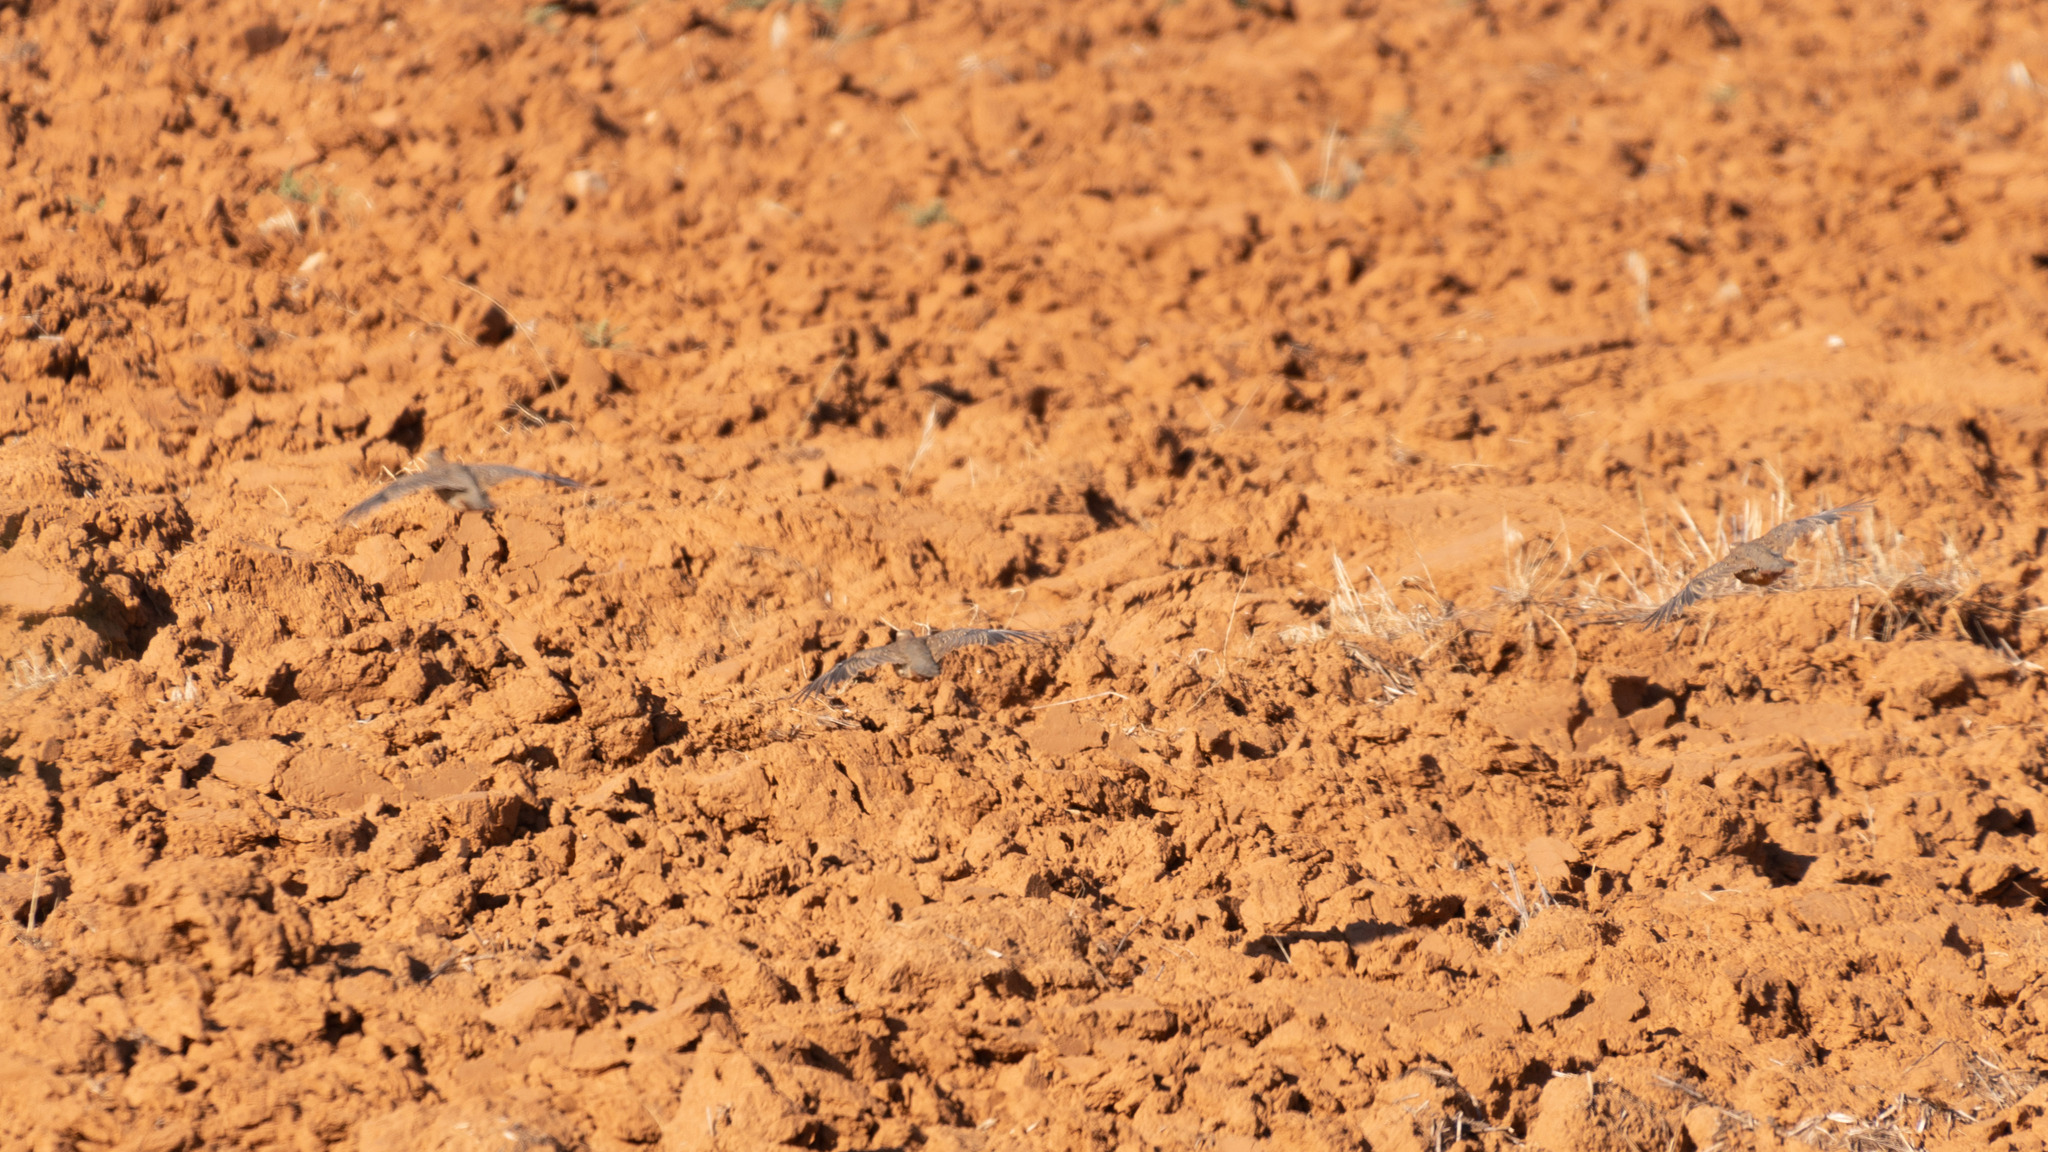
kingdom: Animalia
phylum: Chordata
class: Aves
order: Galliformes
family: Phasianidae
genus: Alectoris
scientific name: Alectoris rufa
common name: Red-legged partridge
